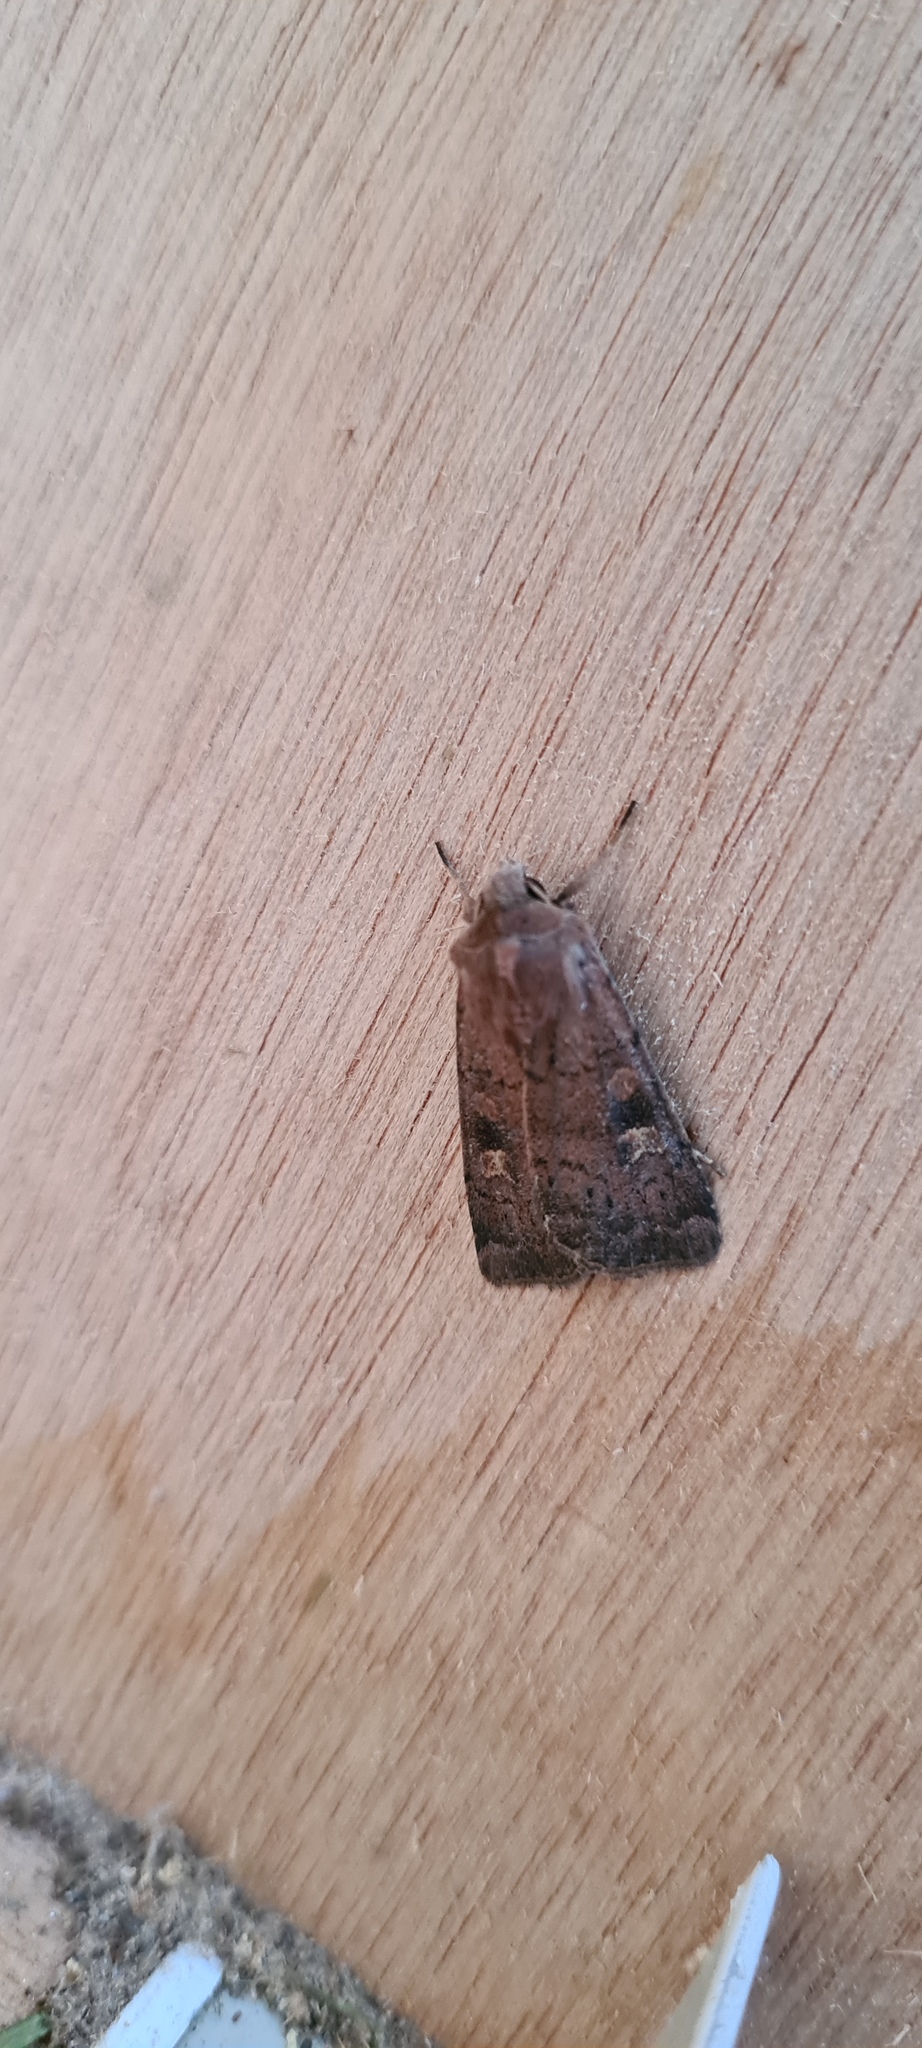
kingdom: Animalia
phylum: Arthropoda
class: Insecta
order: Lepidoptera
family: Noctuidae
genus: Xestia
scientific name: Xestia xanthographa
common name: Square-spot rustic
